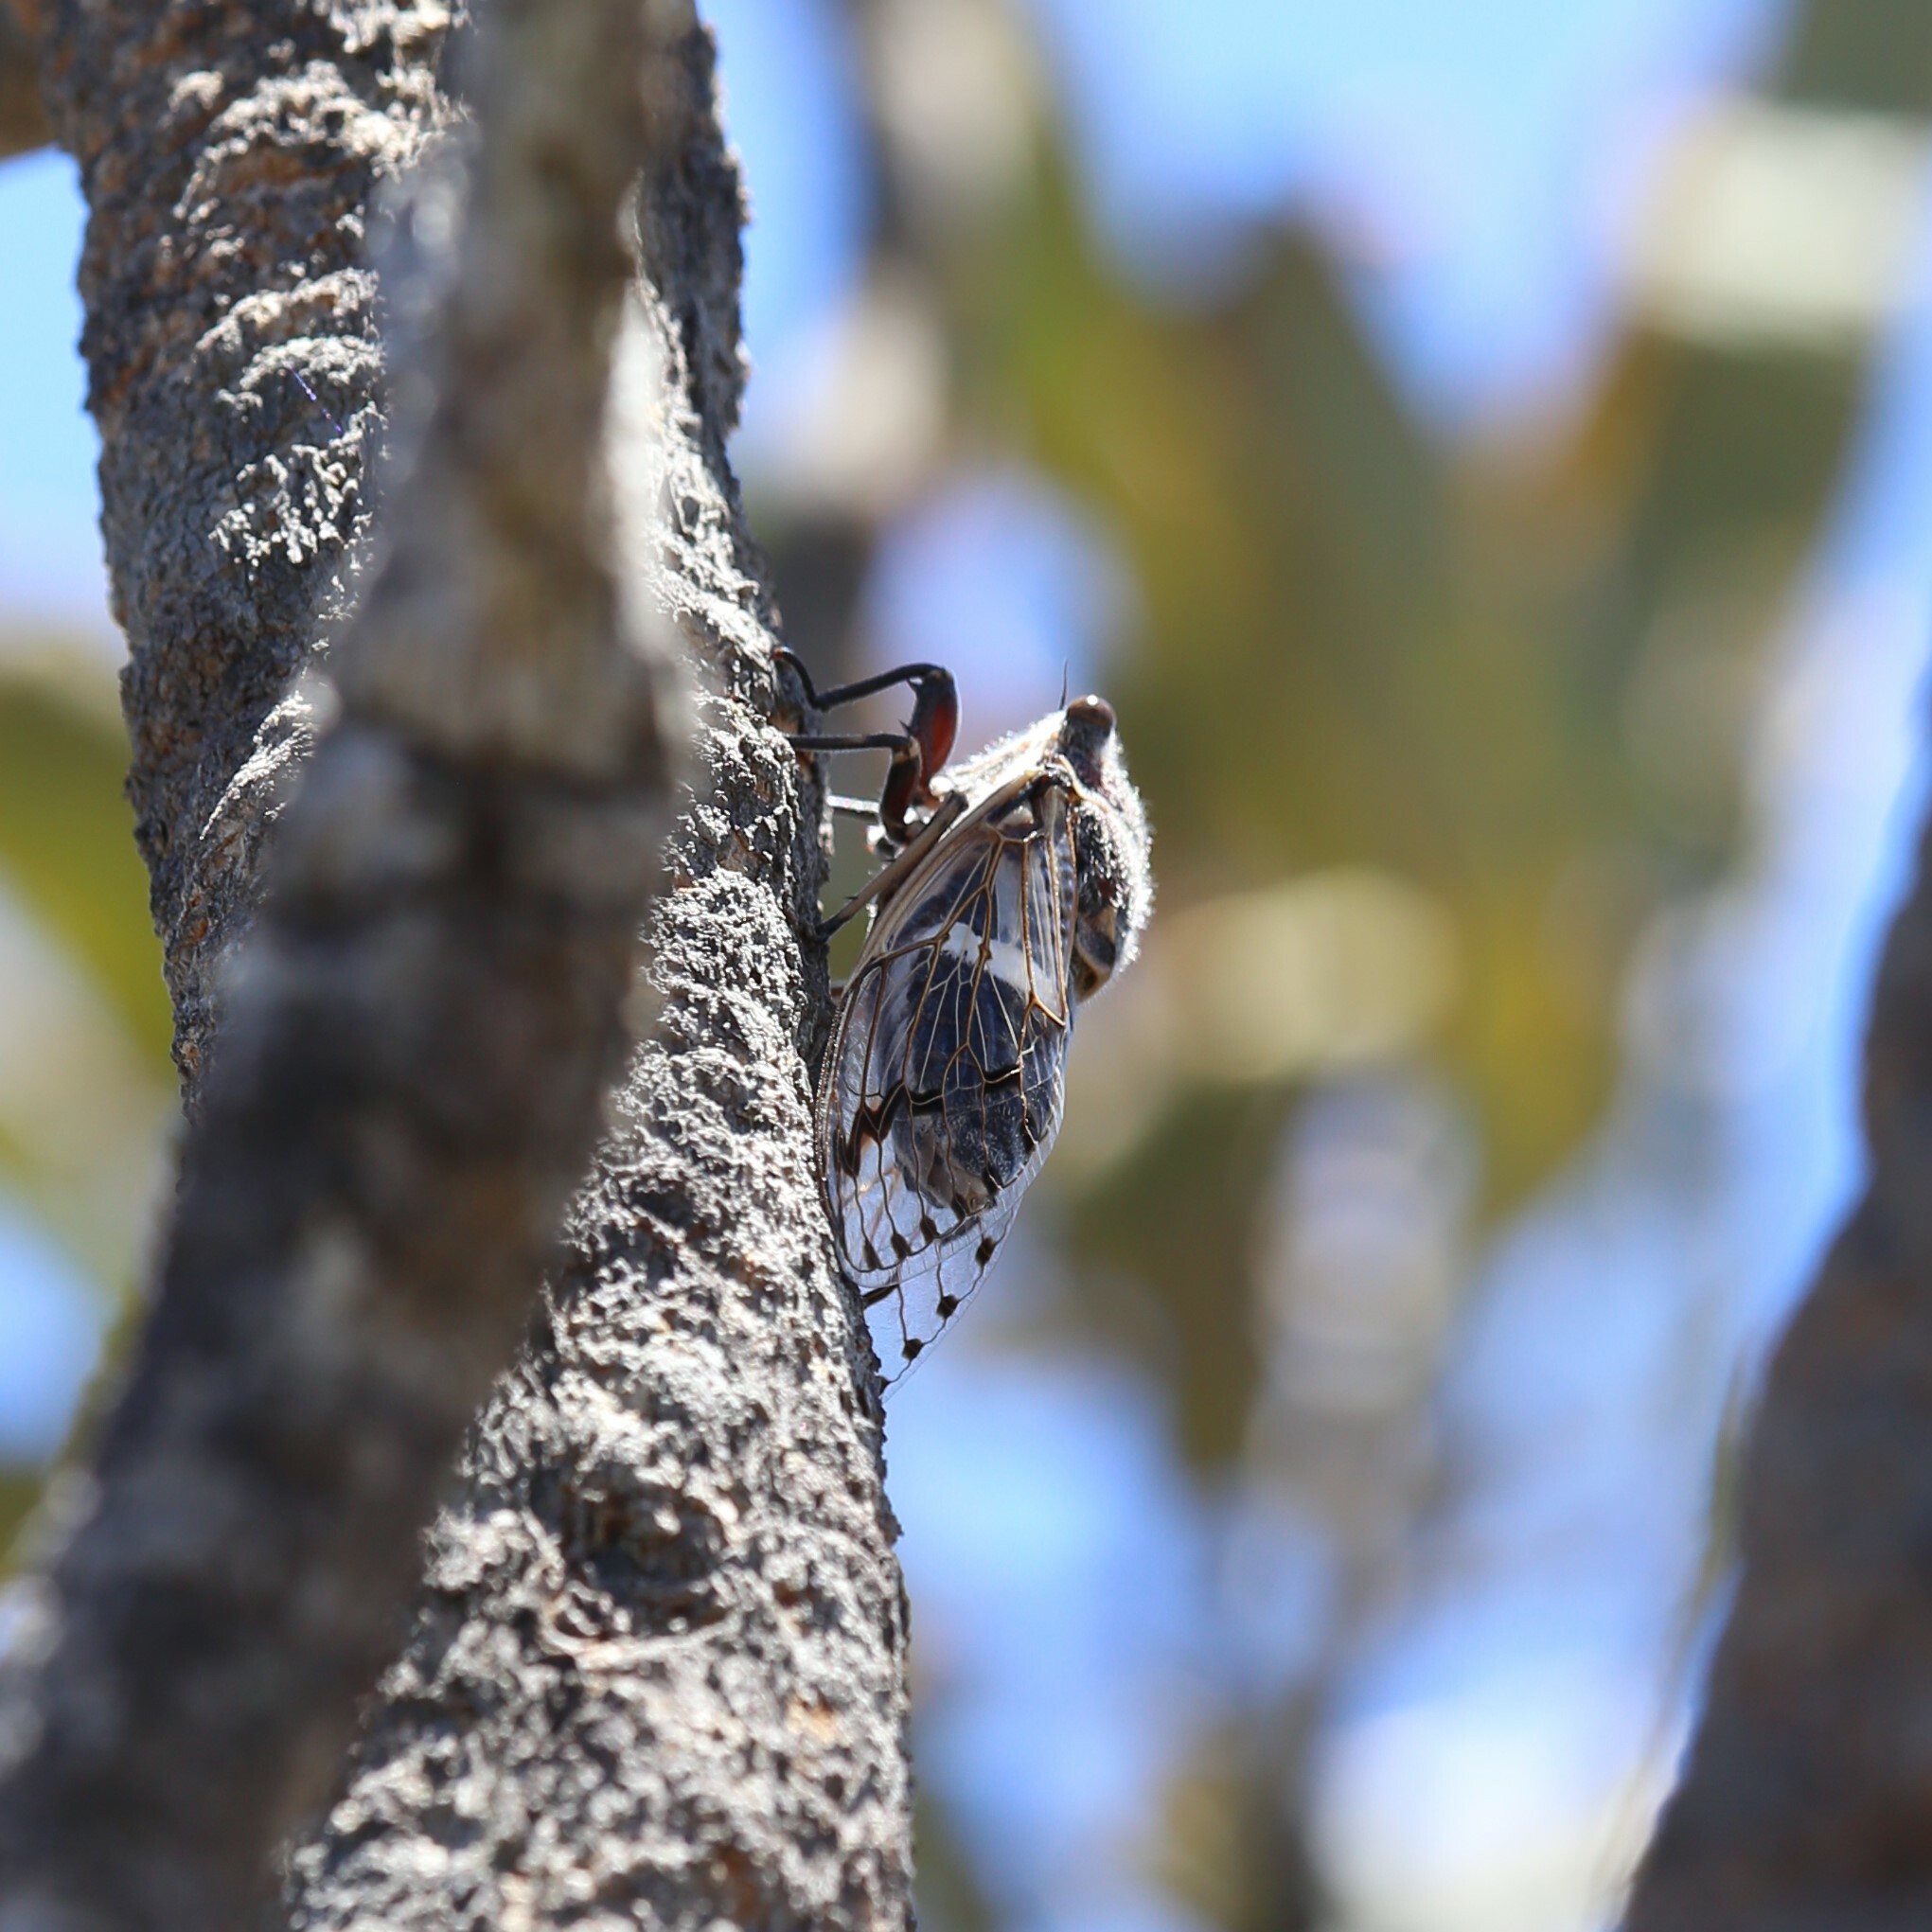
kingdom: Animalia
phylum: Arthropoda
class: Insecta
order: Hemiptera
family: Cicadidae
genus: Arenopsaltria
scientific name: Arenopsaltria fullo
